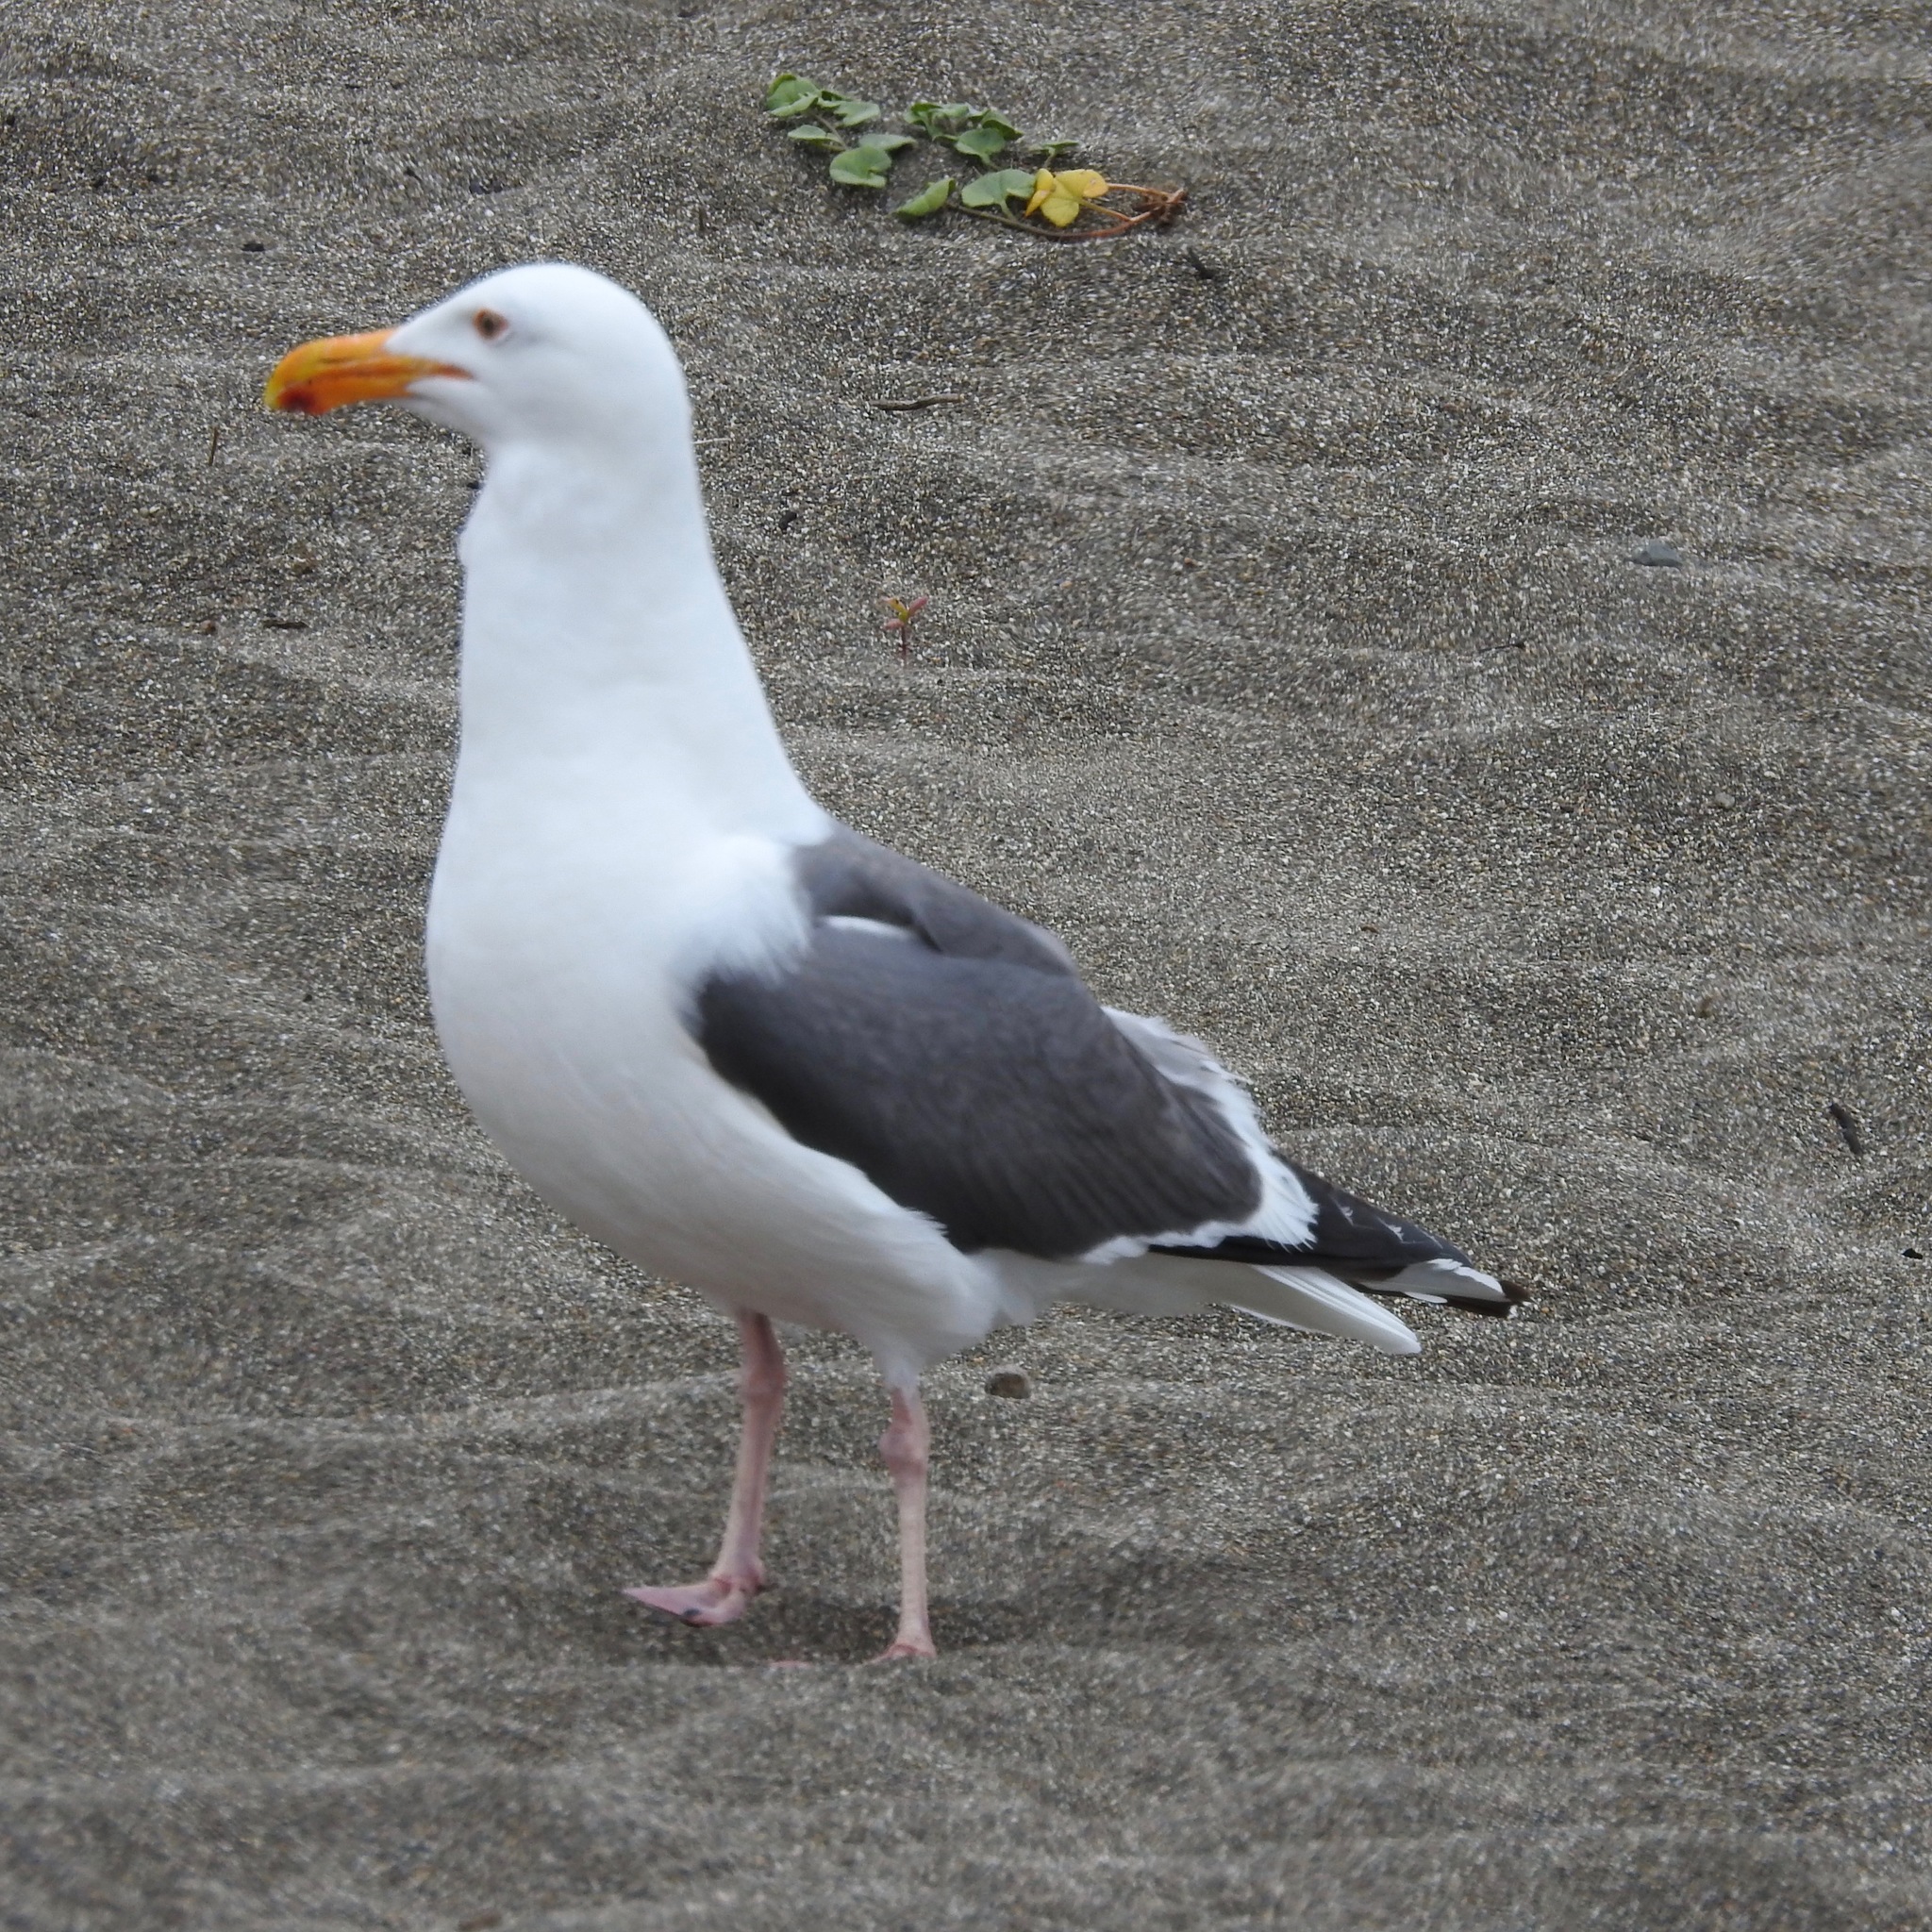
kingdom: Animalia
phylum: Chordata
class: Aves
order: Charadriiformes
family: Laridae
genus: Larus
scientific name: Larus occidentalis
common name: Western gull
